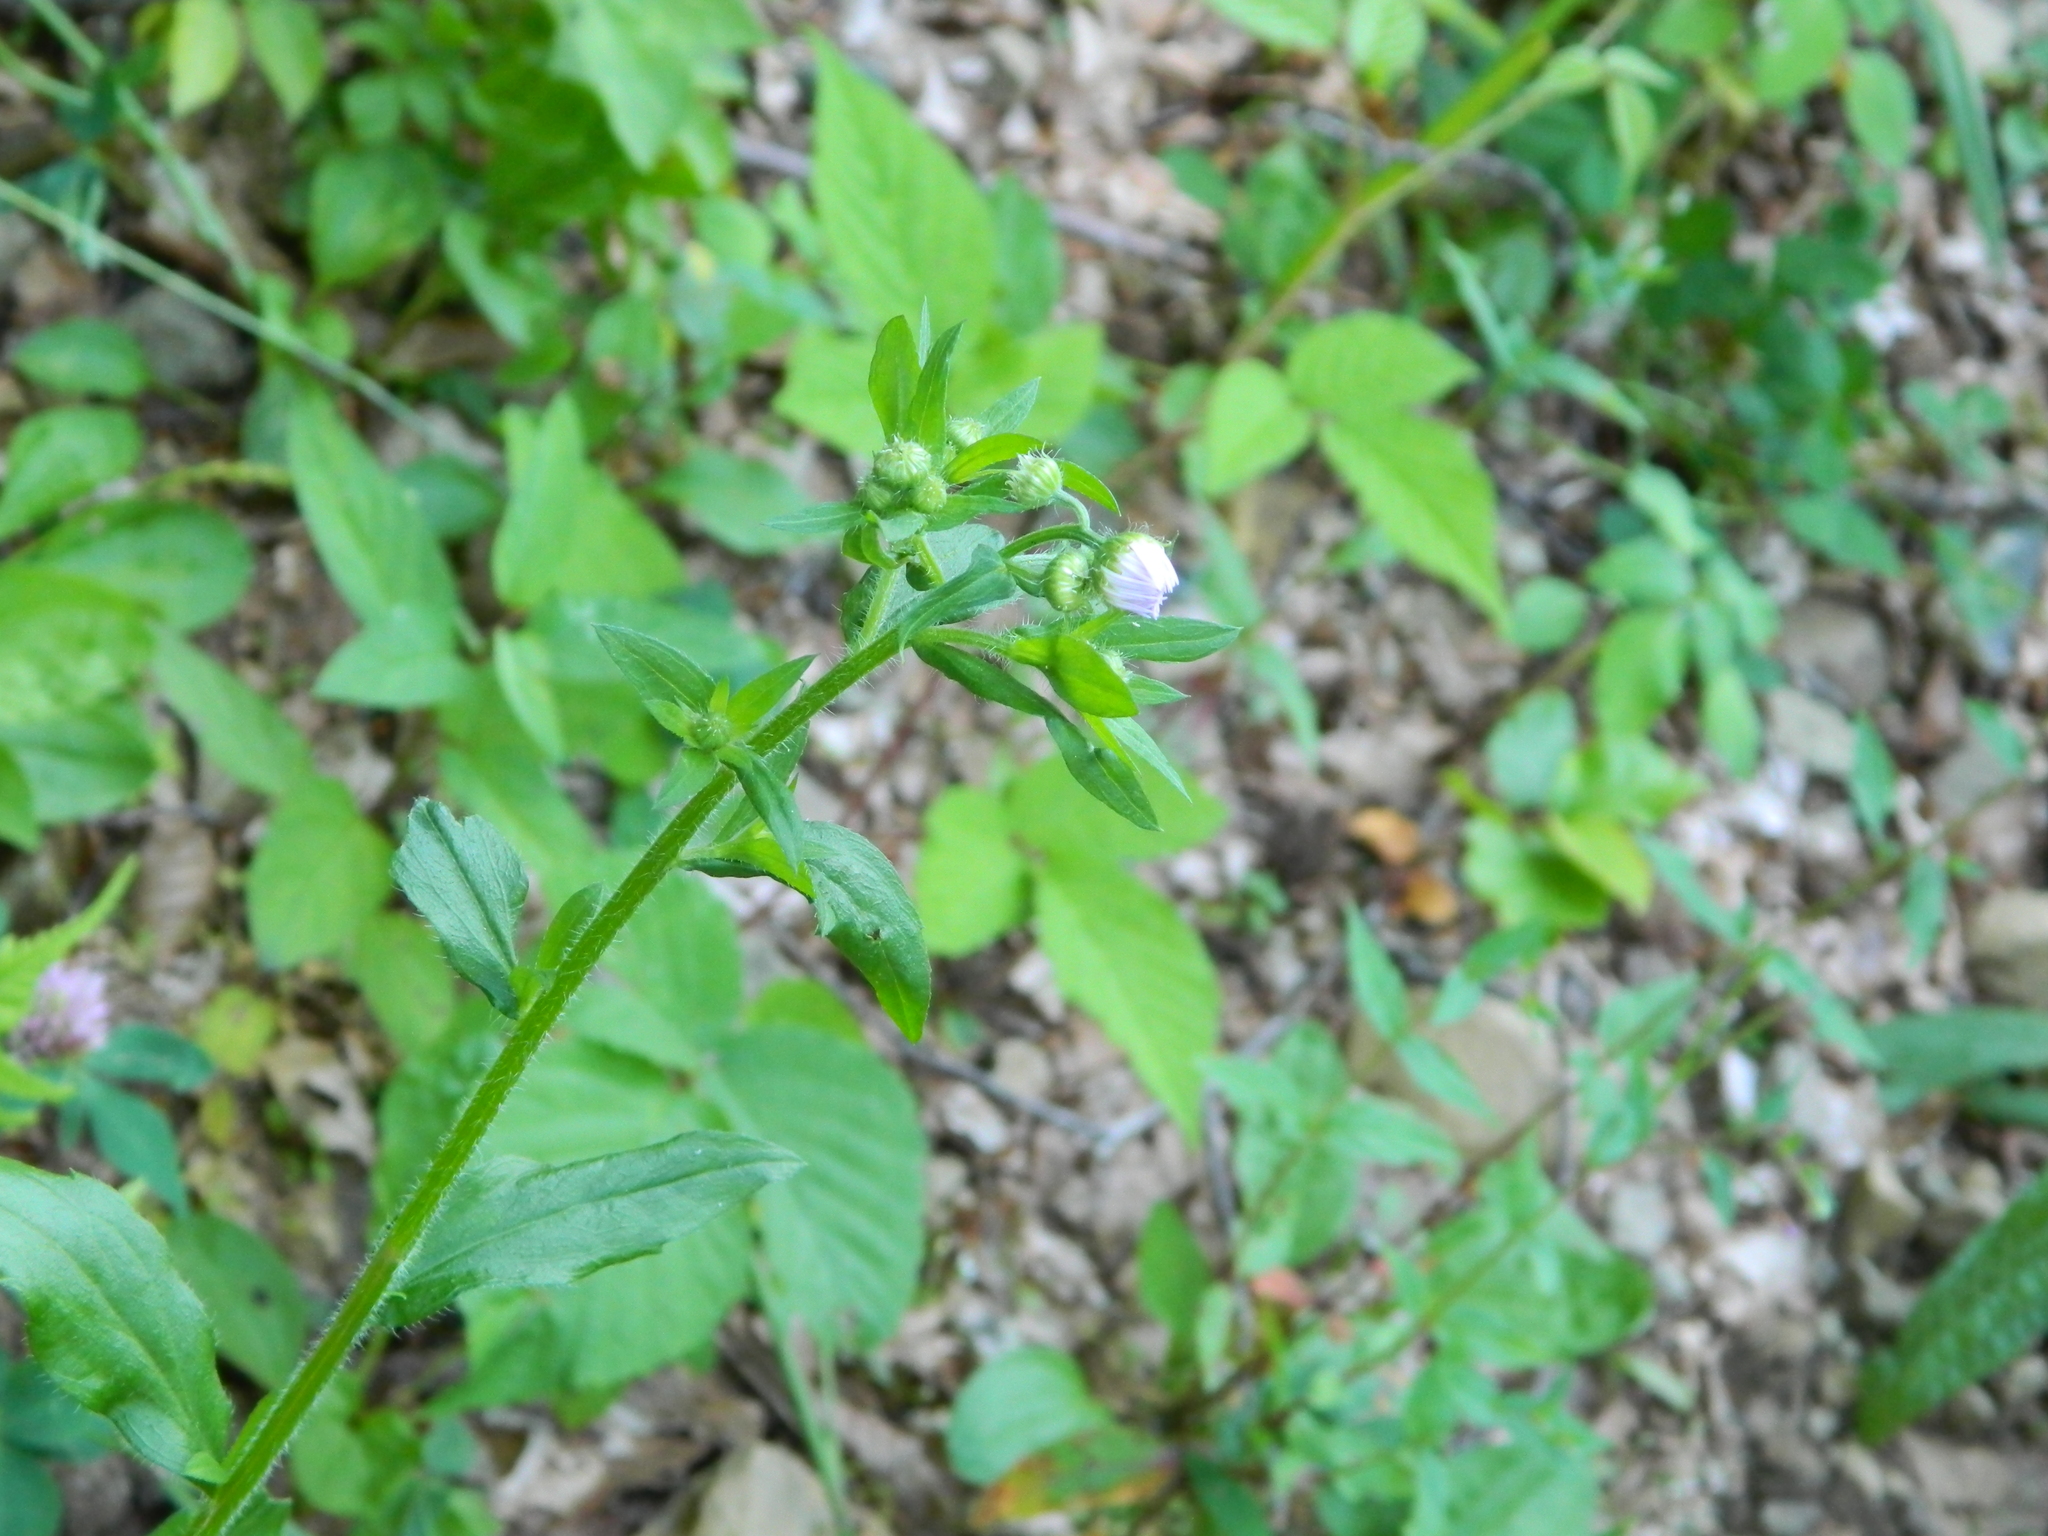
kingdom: Plantae
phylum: Tracheophyta
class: Magnoliopsida
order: Asterales
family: Asteraceae
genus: Erigeron
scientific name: Erigeron annuus
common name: Tall fleabane
